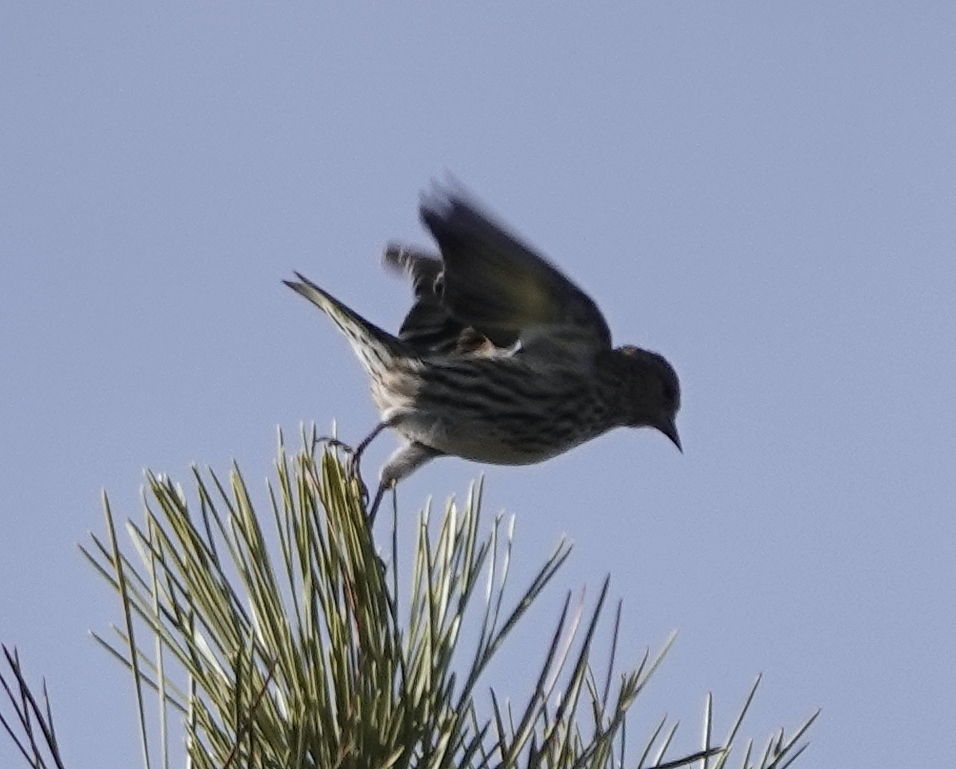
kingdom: Animalia
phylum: Chordata
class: Aves
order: Passeriformes
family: Fringillidae
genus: Spinus
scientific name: Spinus pinus
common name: Pine siskin
